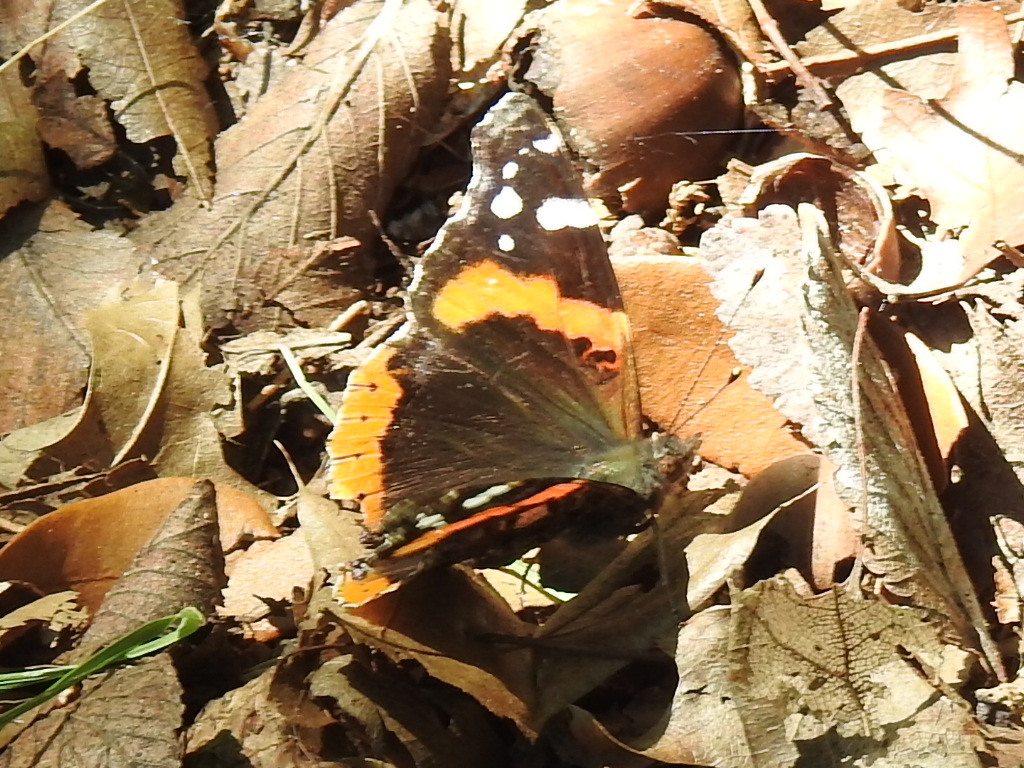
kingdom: Animalia
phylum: Arthropoda
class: Insecta
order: Lepidoptera
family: Nymphalidae
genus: Vanessa
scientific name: Vanessa atalanta
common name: Red admiral
